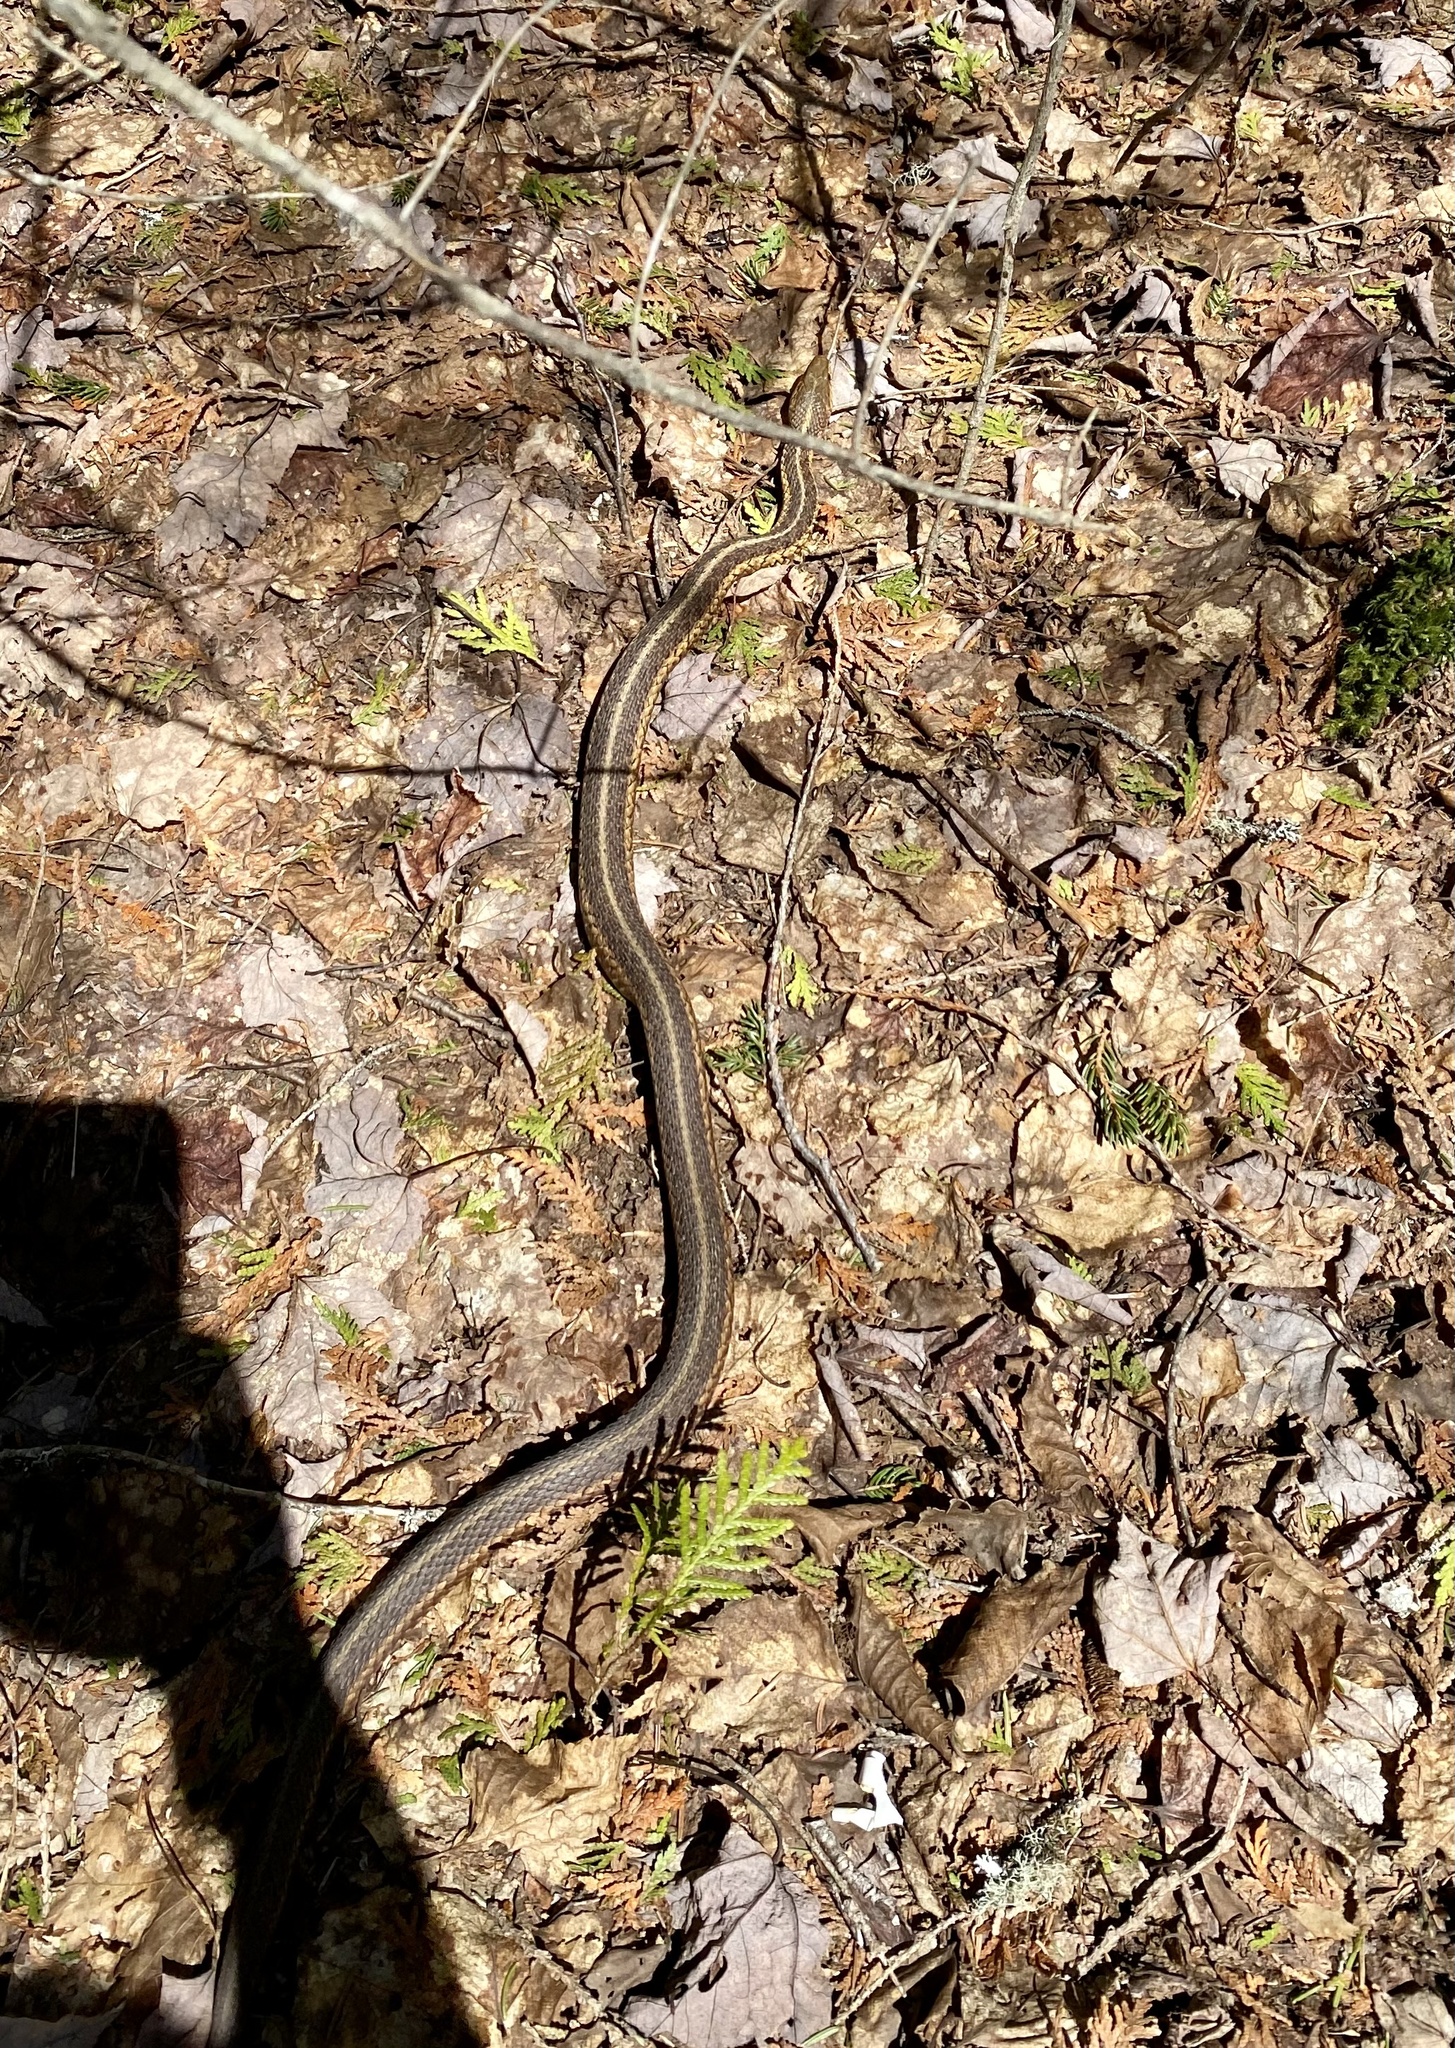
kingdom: Animalia
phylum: Chordata
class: Squamata
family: Colubridae
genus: Thamnophis
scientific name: Thamnophis sirtalis
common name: Common garter snake
